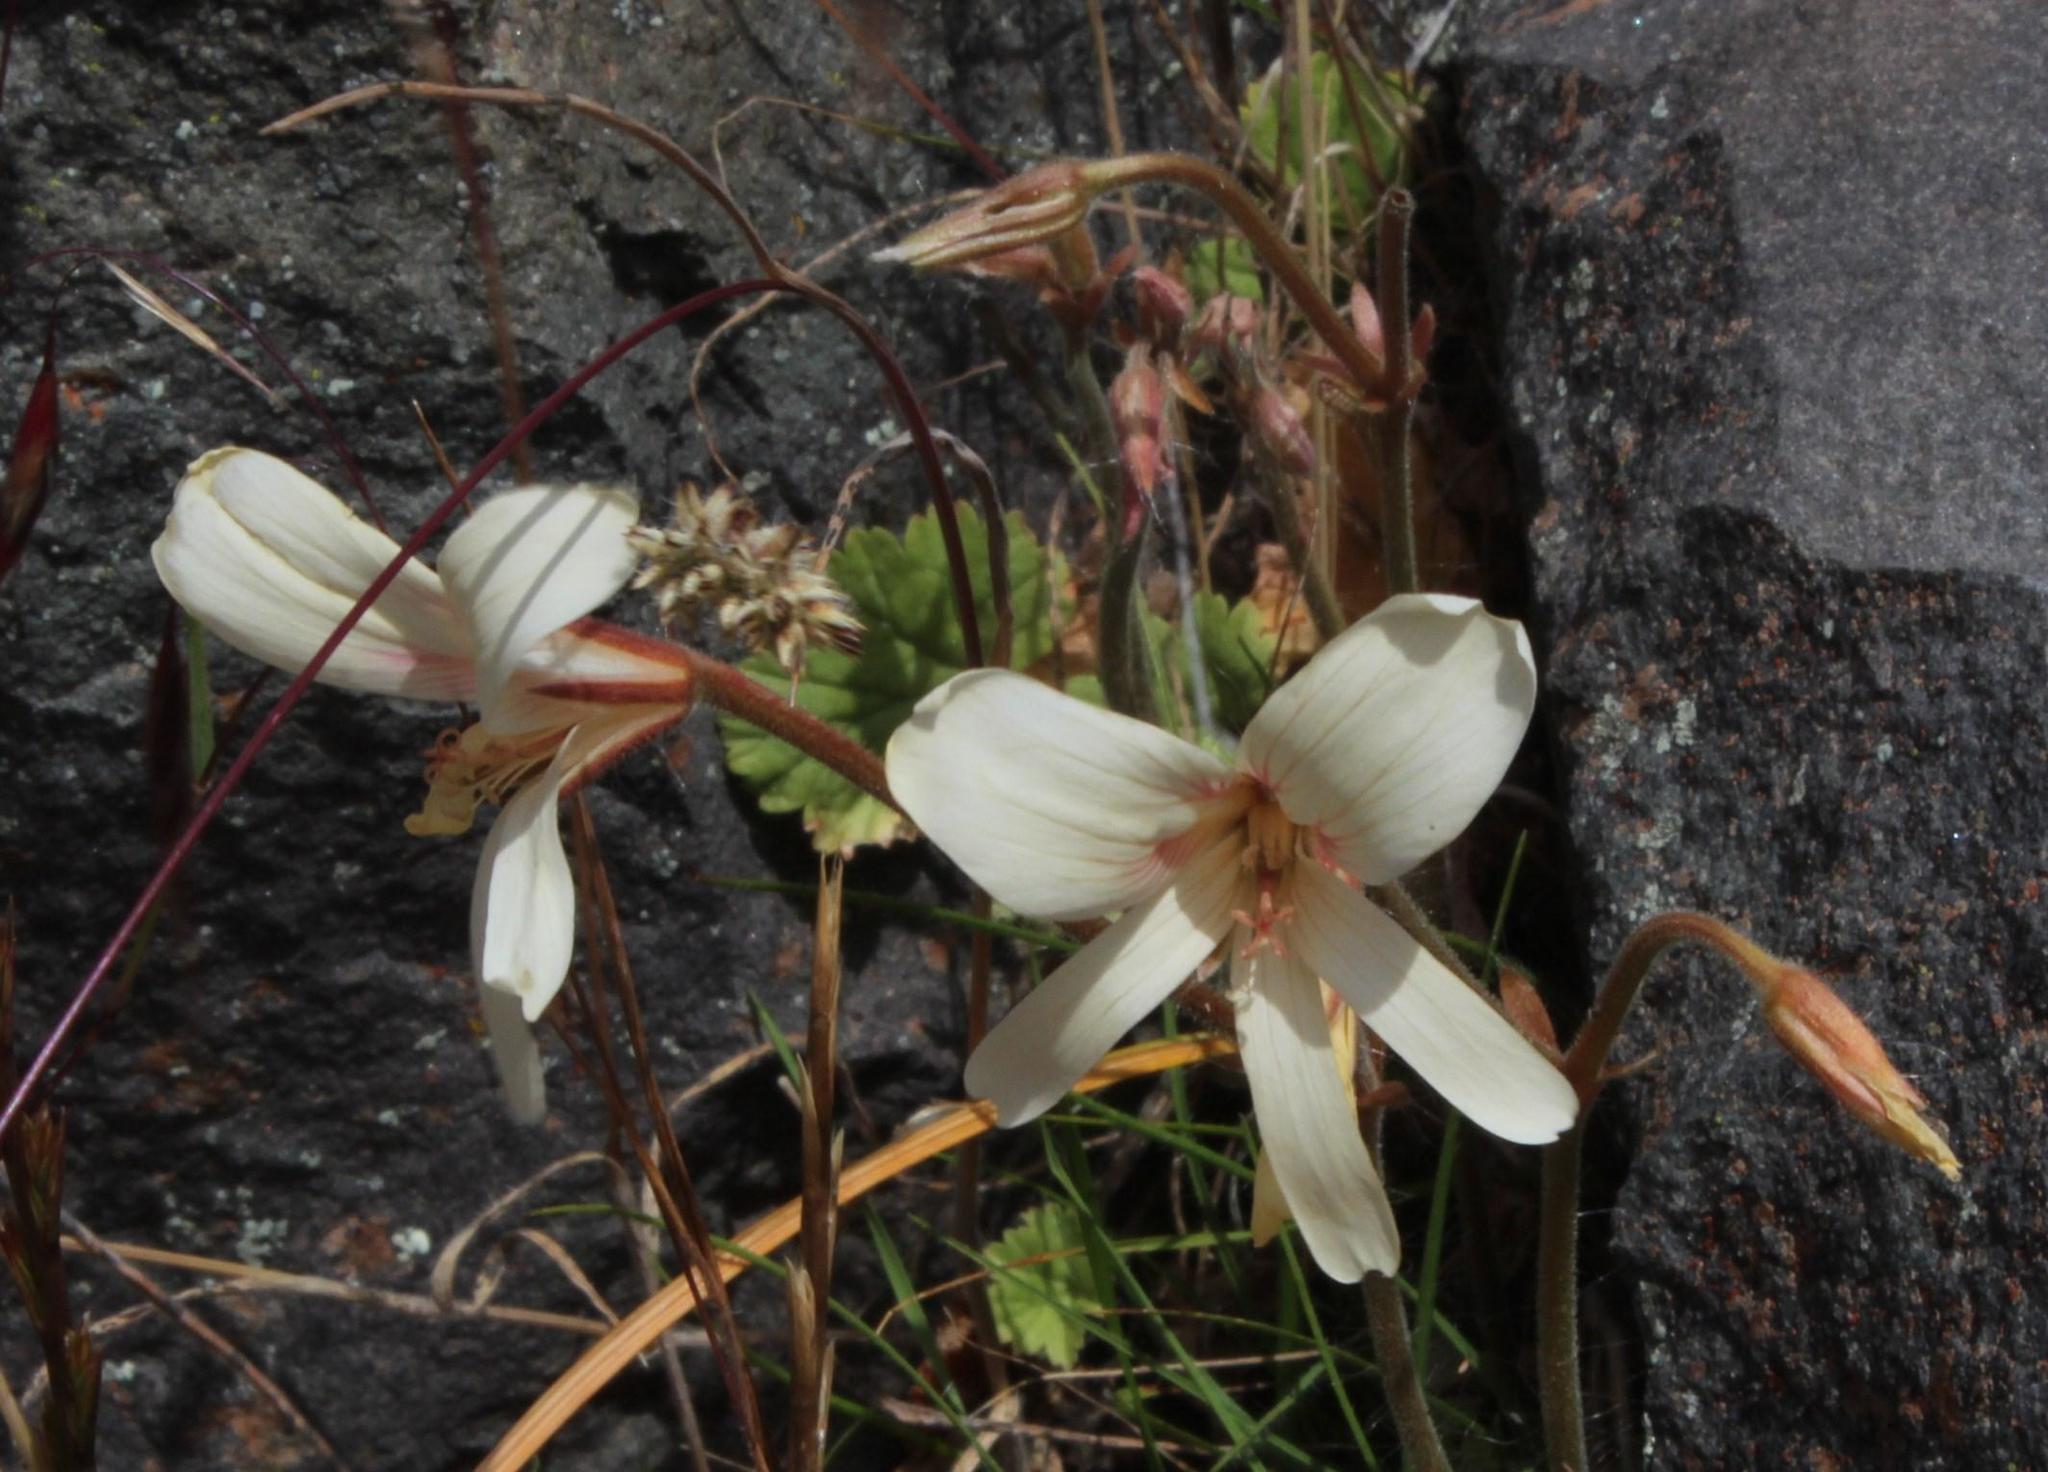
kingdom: Plantae
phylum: Tracheophyta
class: Magnoliopsida
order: Geraniales
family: Geraniaceae
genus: Pelargonium
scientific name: Pelargonium articulatum
